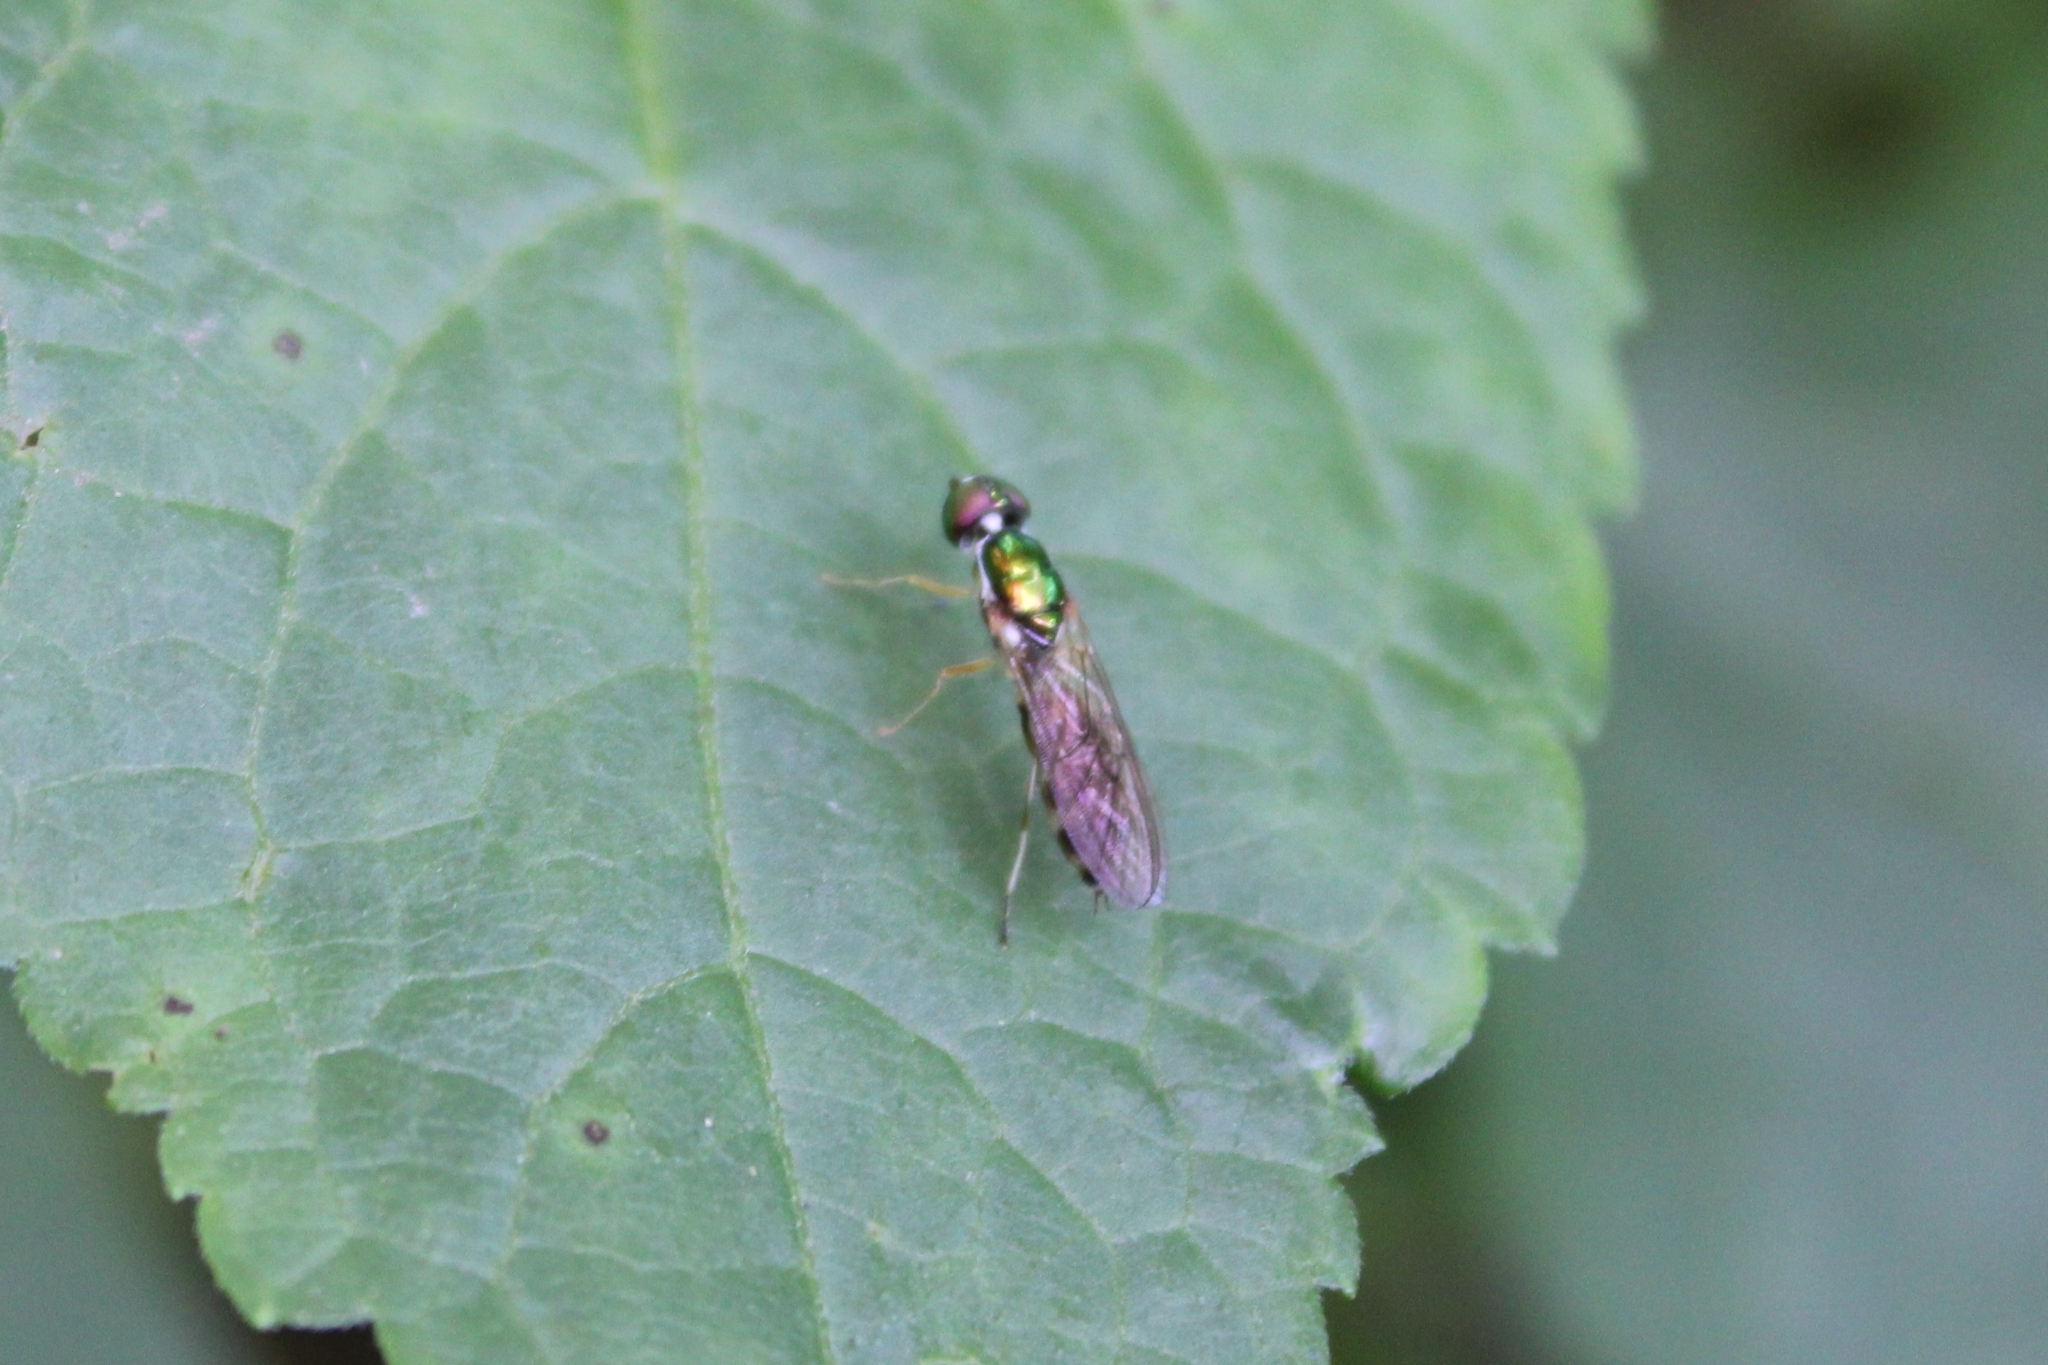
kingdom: Animalia
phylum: Arthropoda
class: Insecta
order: Diptera
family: Stratiomyidae
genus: Sargus
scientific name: Sargus fasciatus
